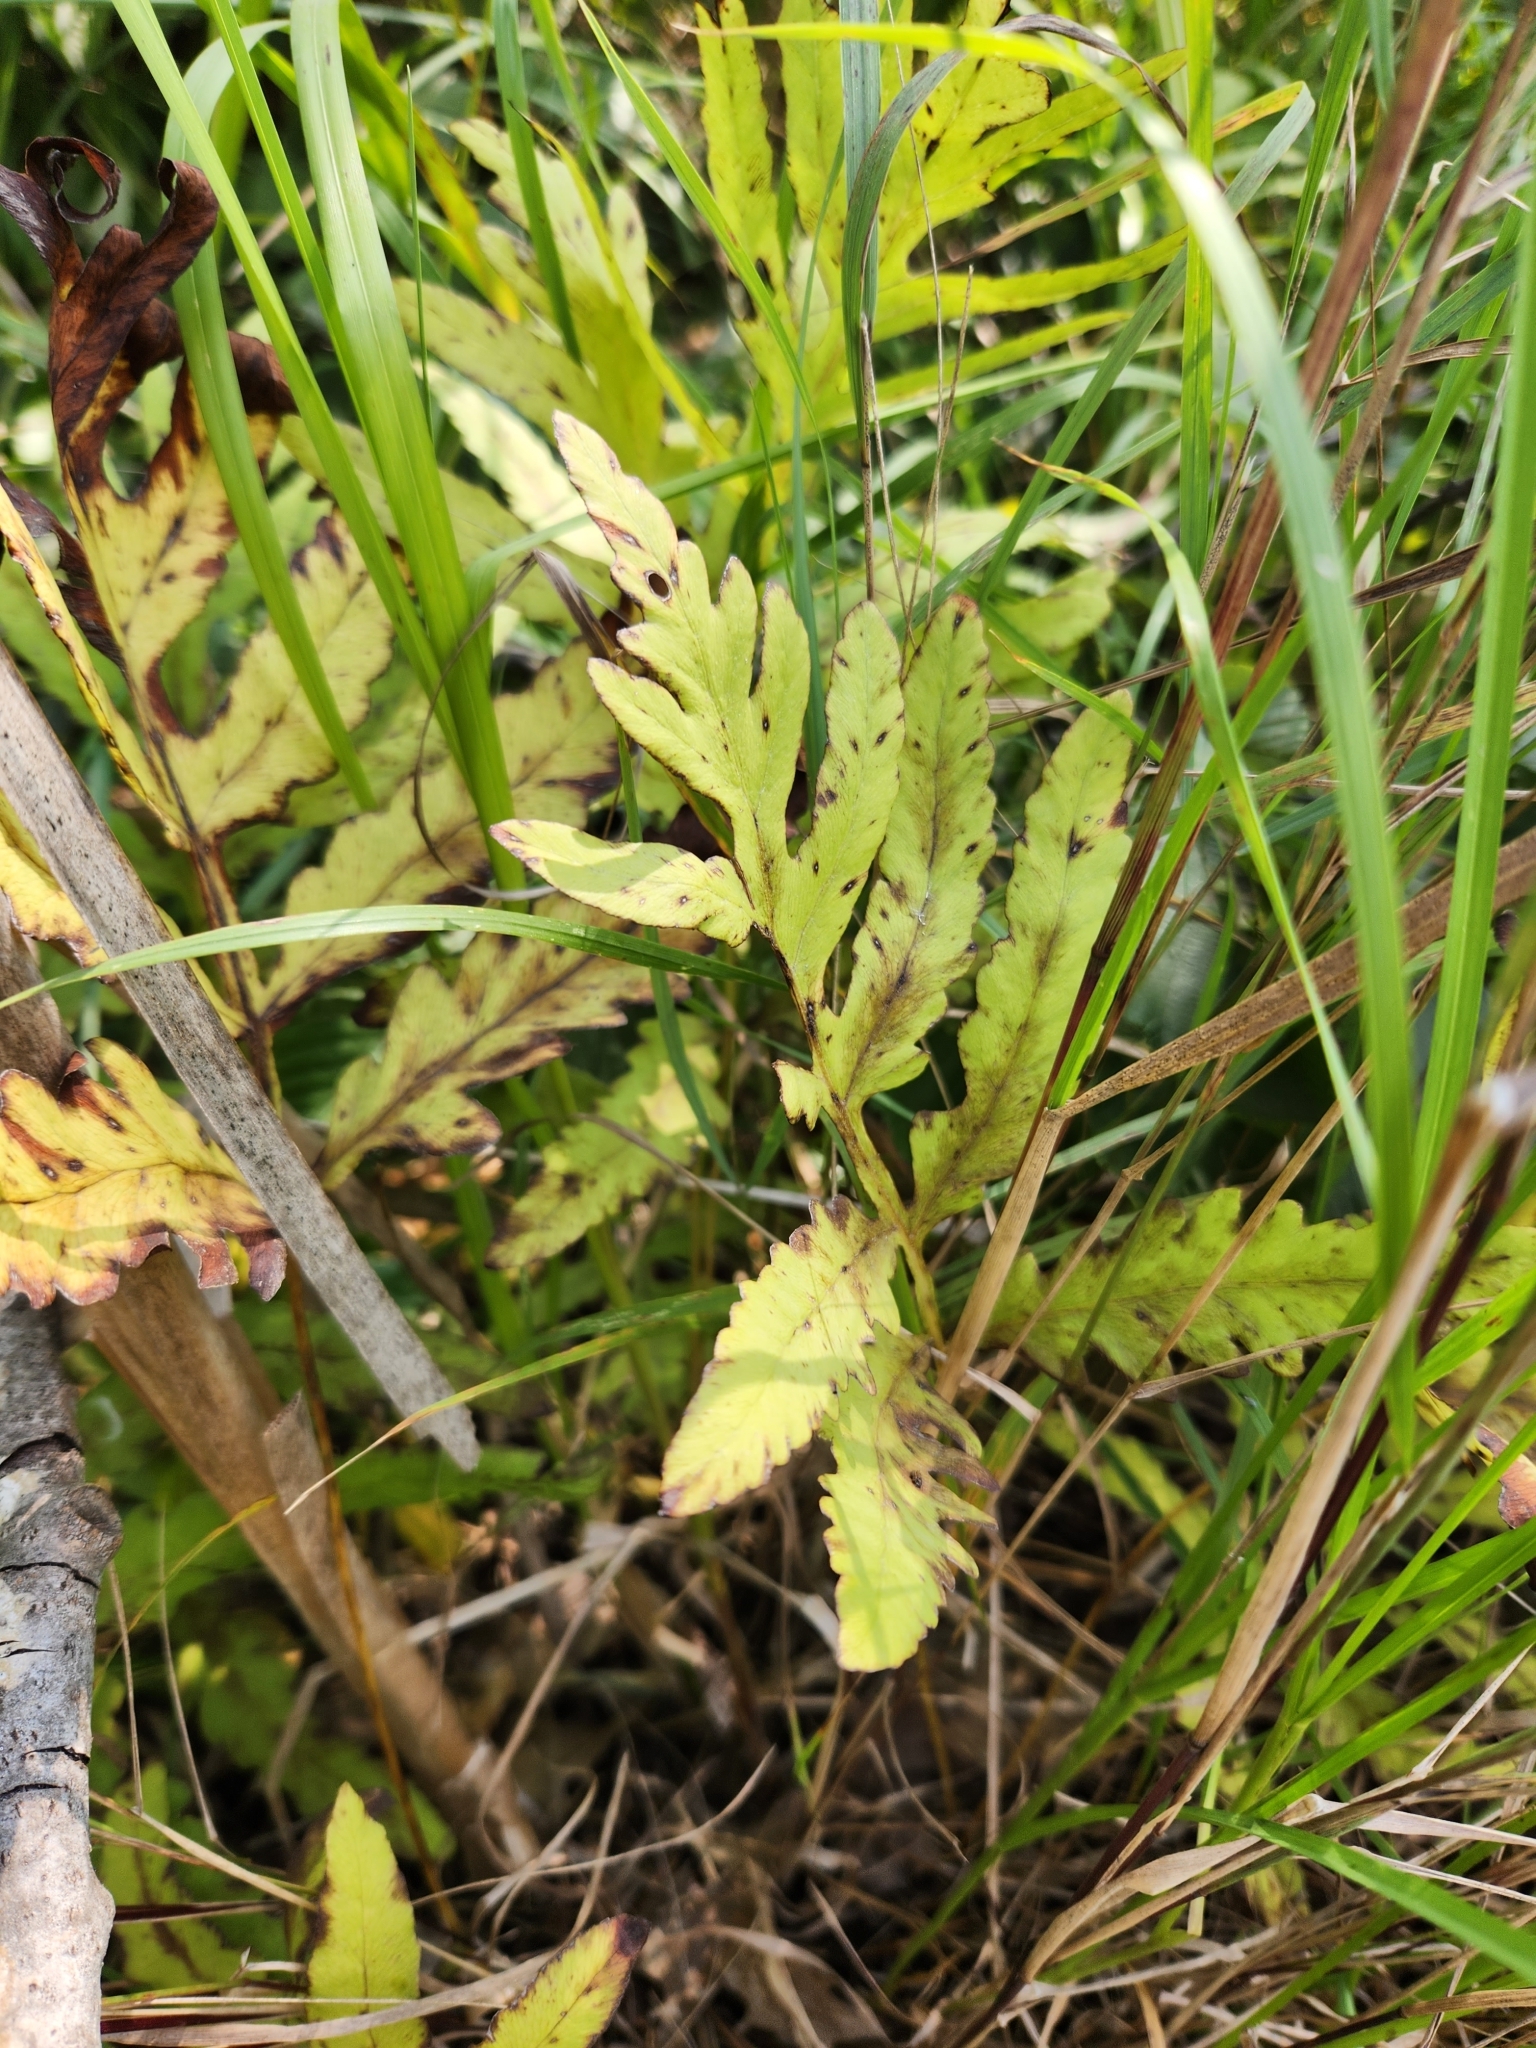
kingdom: Plantae
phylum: Tracheophyta
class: Polypodiopsida
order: Polypodiales
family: Onocleaceae
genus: Onoclea
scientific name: Onoclea sensibilis
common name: Sensitive fern
